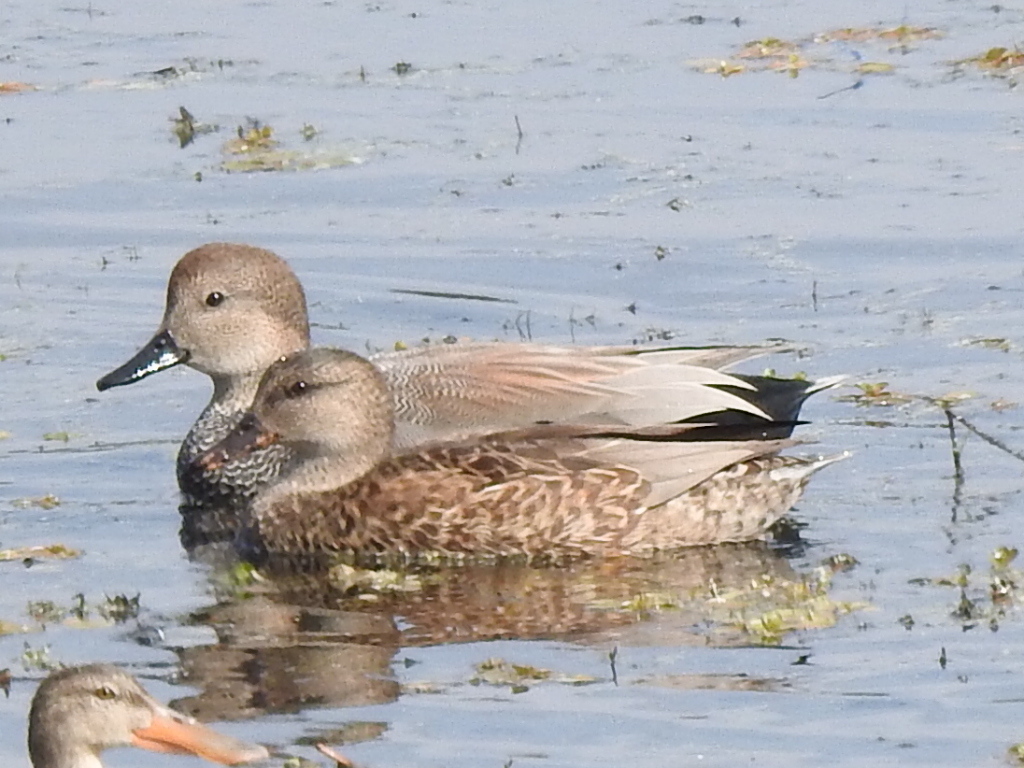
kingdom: Animalia
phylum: Chordata
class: Aves
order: Anseriformes
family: Anatidae
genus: Mareca
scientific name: Mareca strepera
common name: Gadwall
